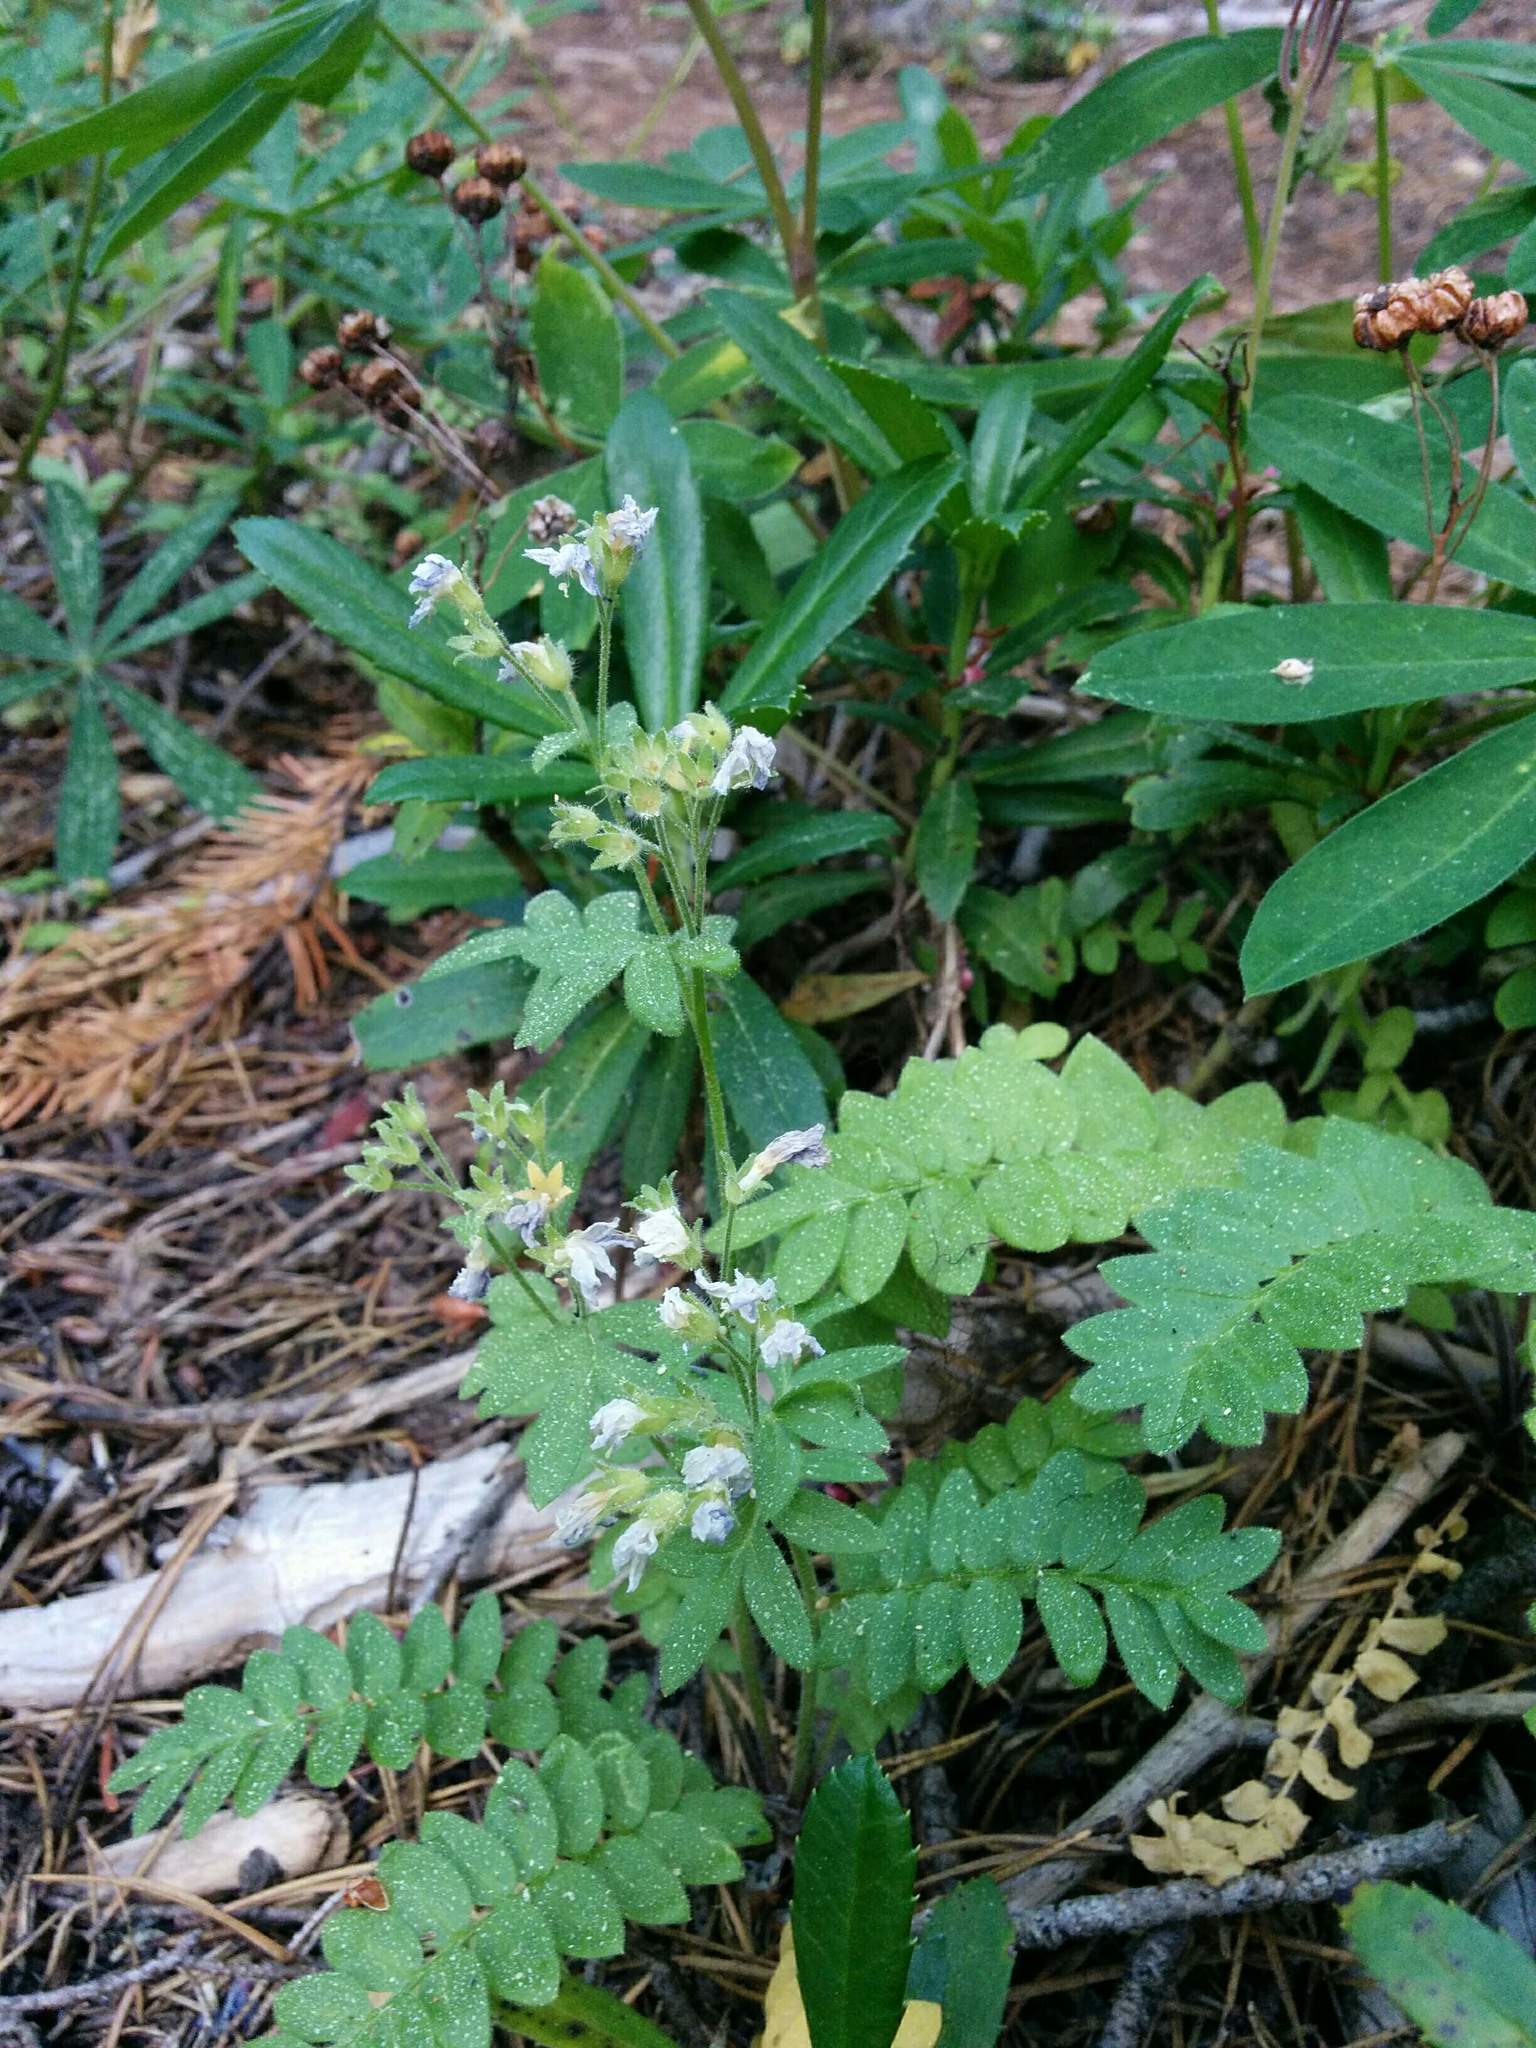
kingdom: Plantae
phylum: Tracheophyta
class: Magnoliopsida
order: Ericales
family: Polemoniaceae
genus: Polemonium
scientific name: Polemonium californicum
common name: California jacob's ladder
